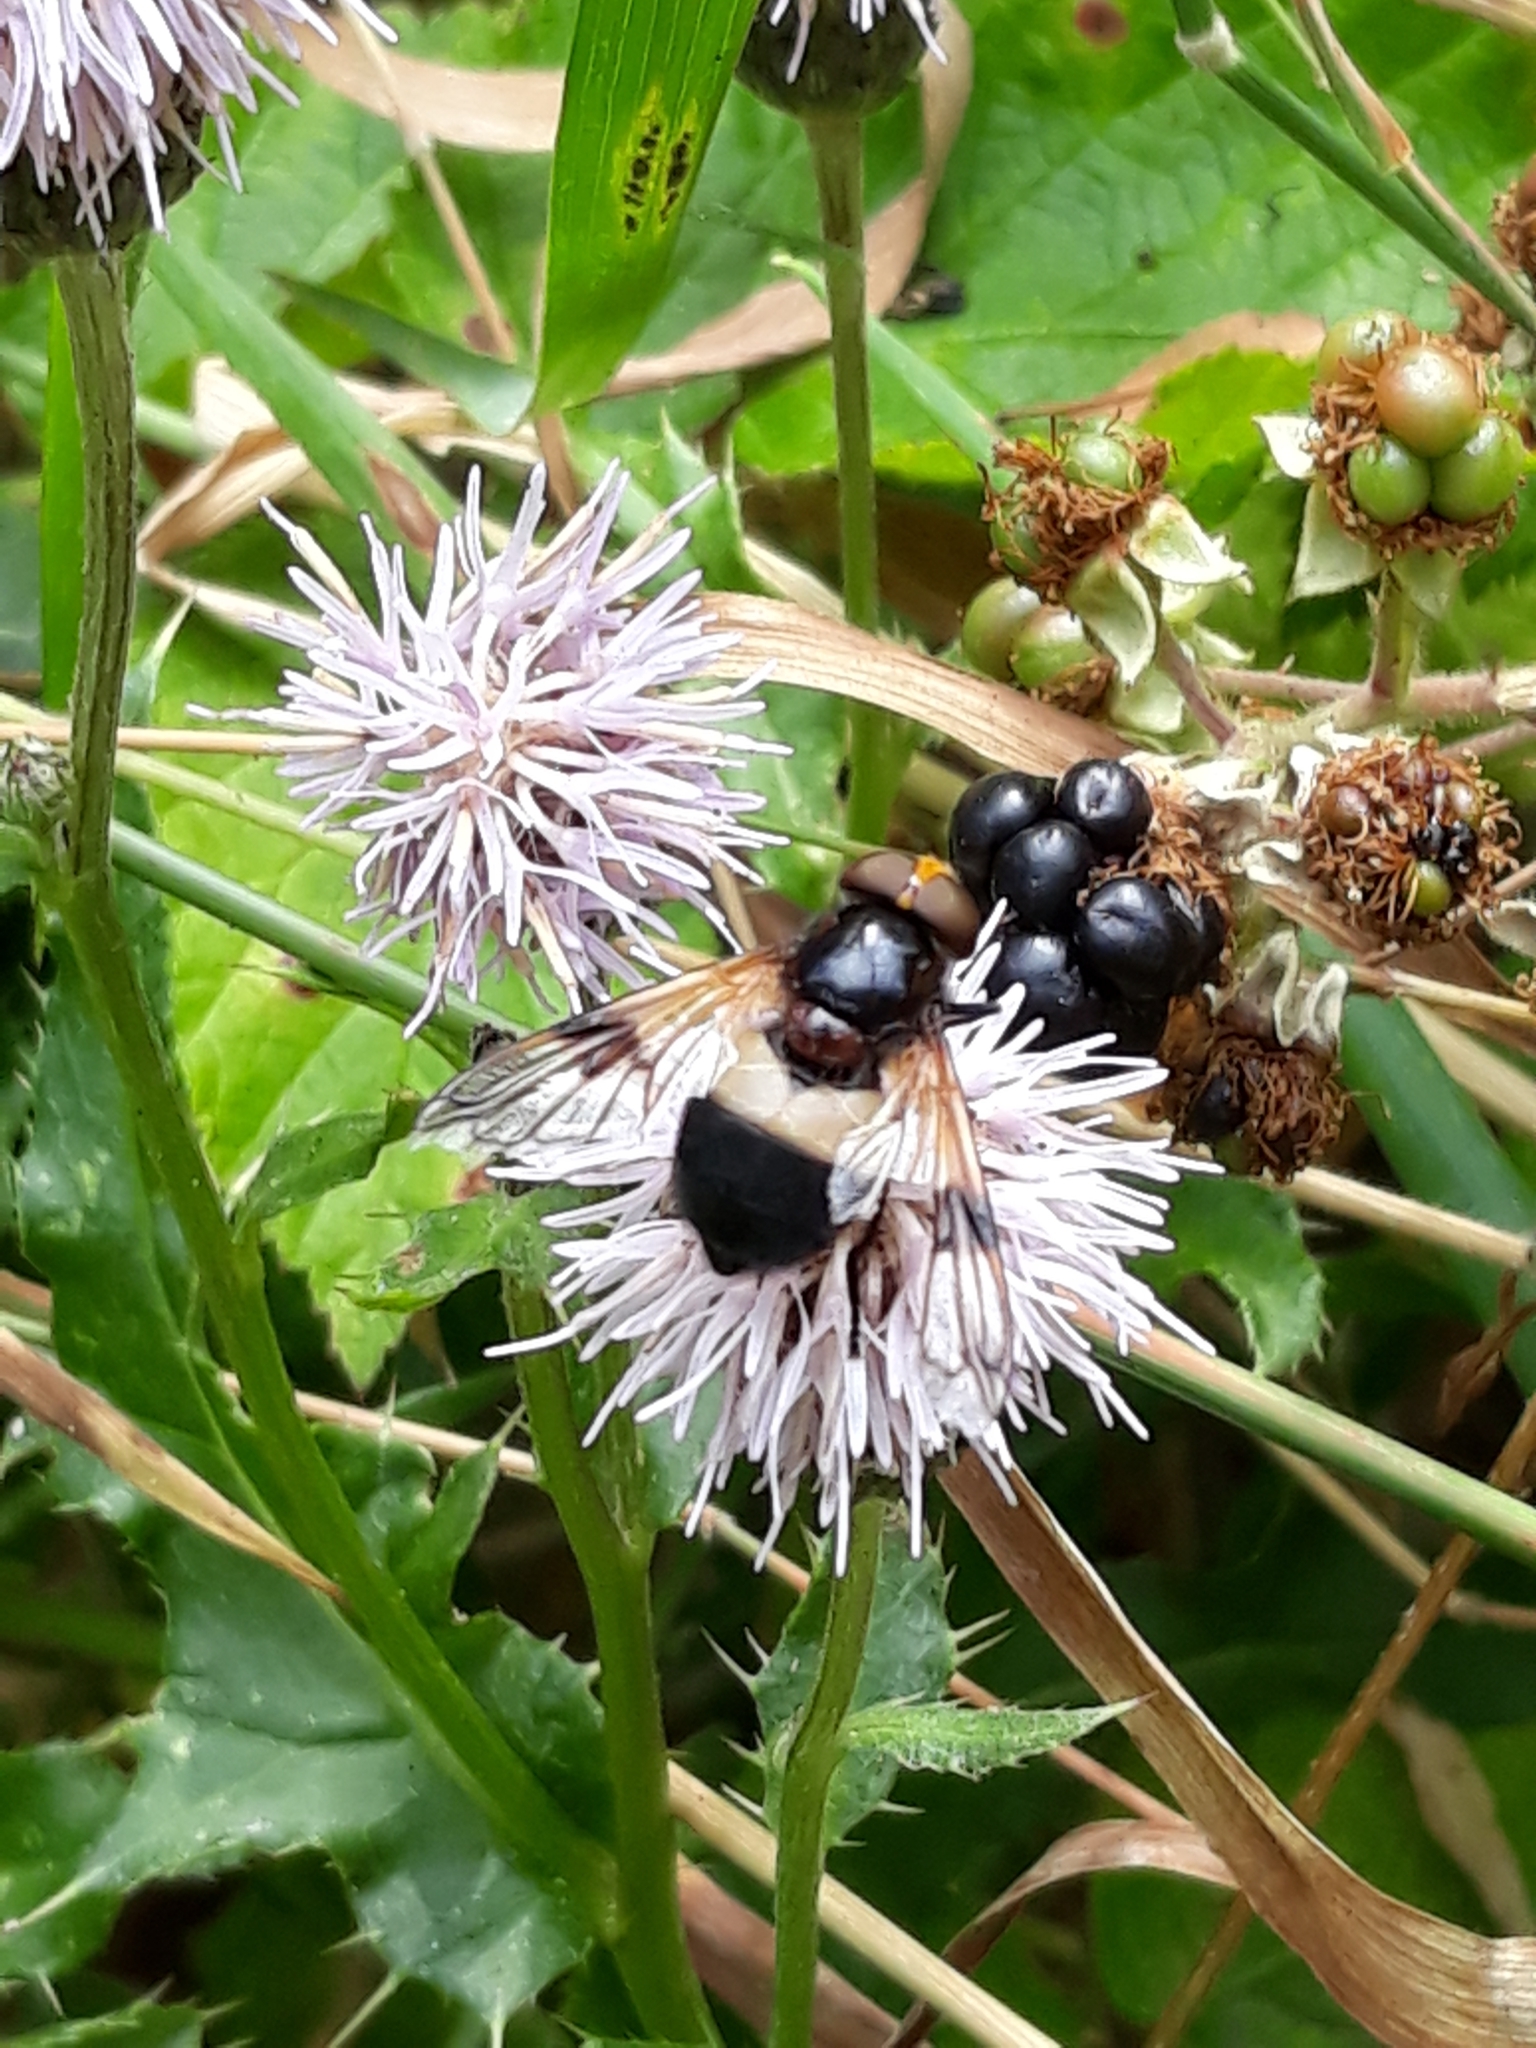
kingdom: Animalia
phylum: Arthropoda
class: Insecta
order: Diptera
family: Syrphidae
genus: Volucella
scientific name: Volucella pellucens
